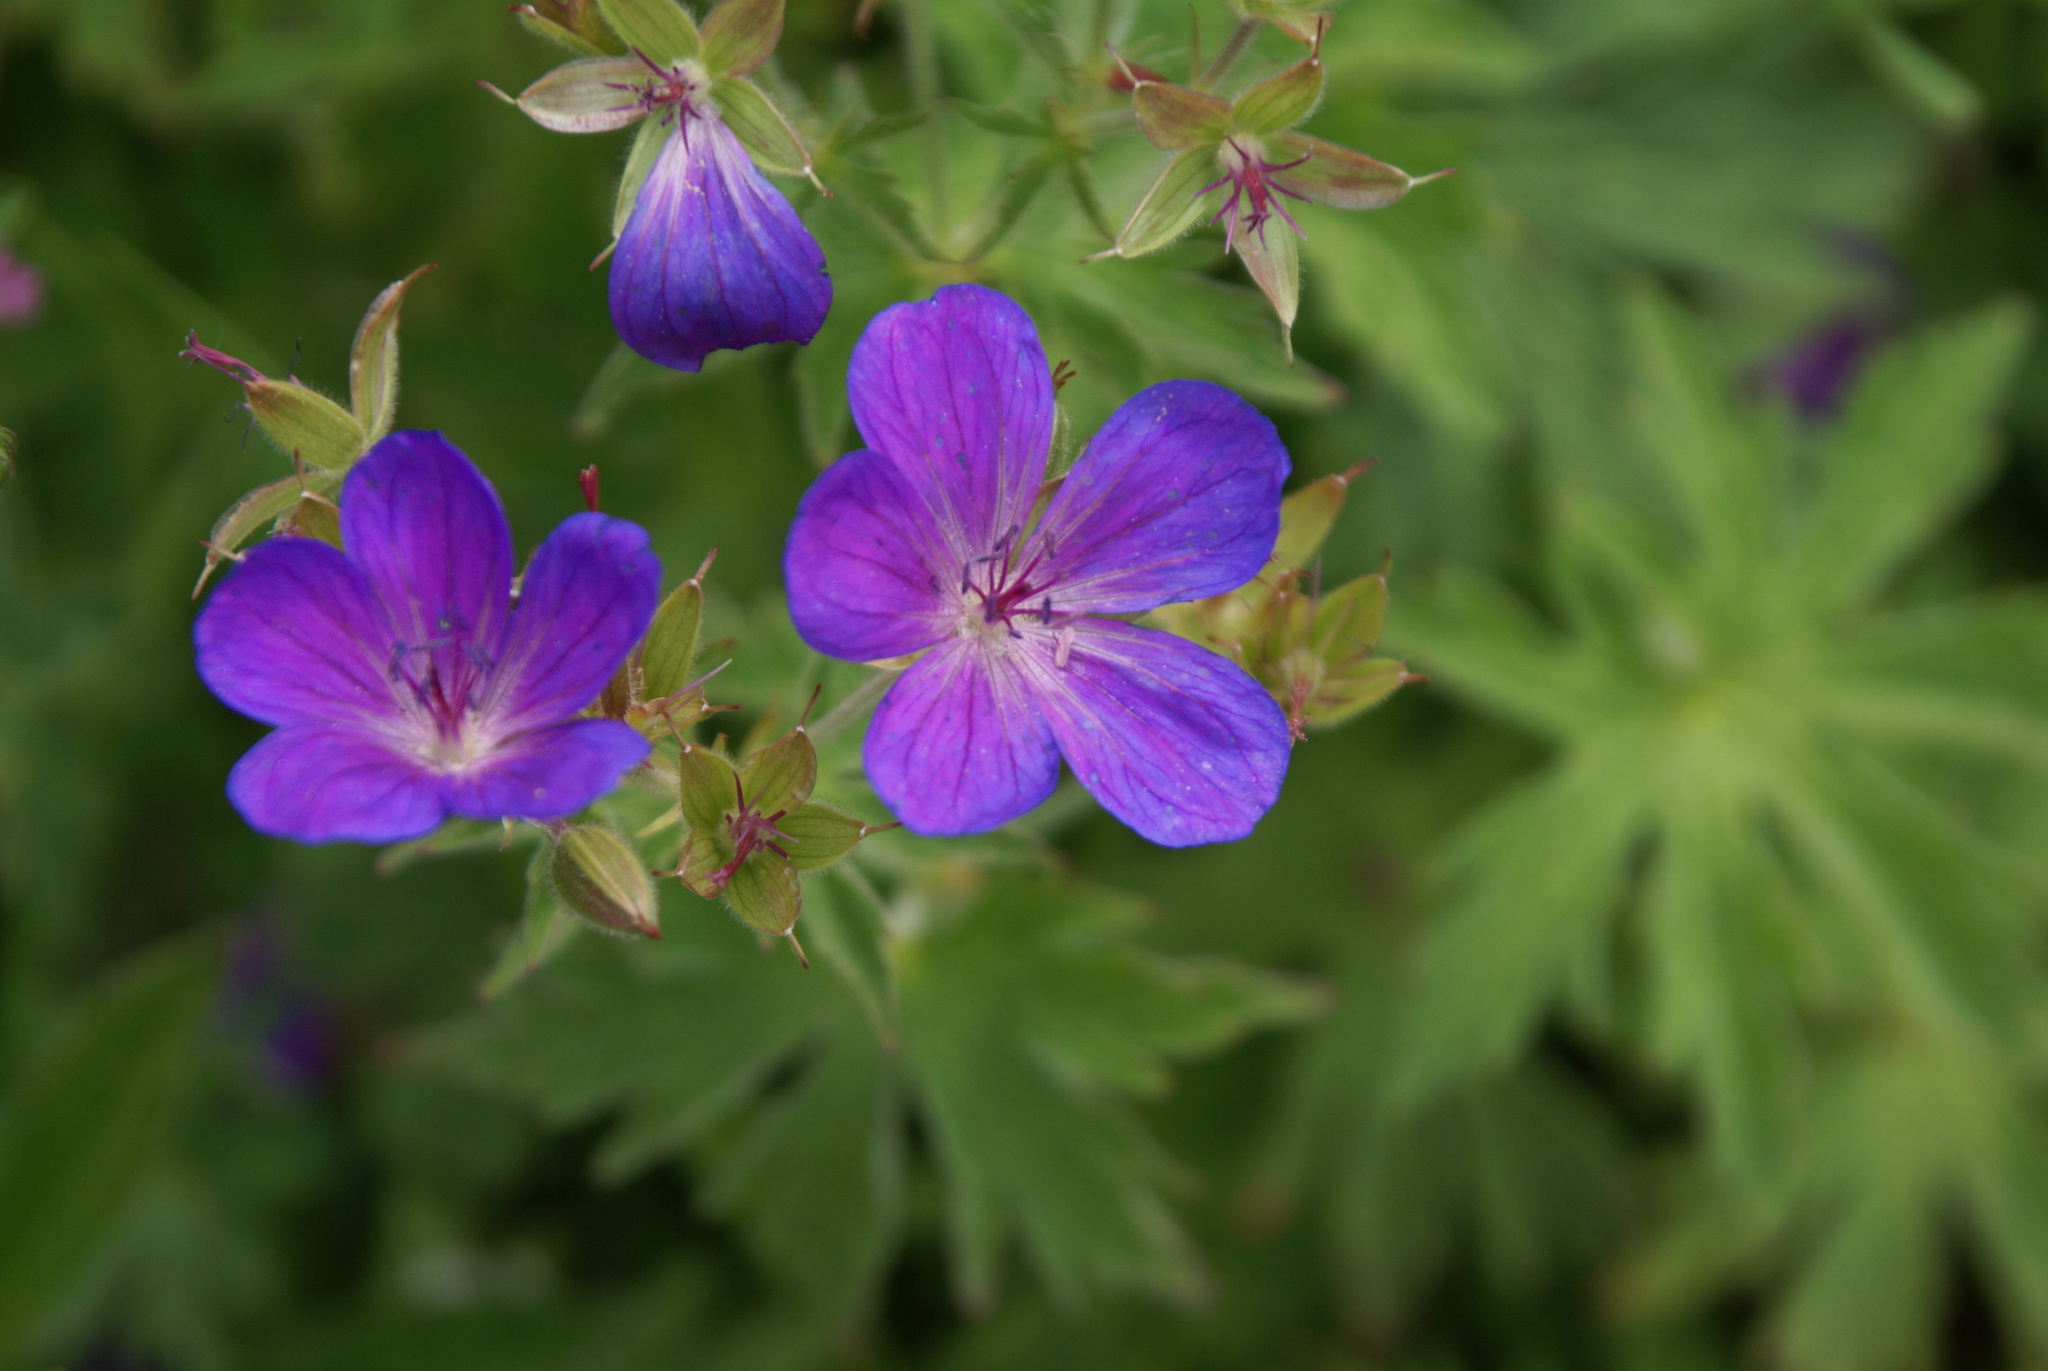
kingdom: Plantae
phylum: Tracheophyta
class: Magnoliopsida
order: Geraniales
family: Geraniaceae
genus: Geranium
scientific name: Geranium sylvaticum
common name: Wood crane's-bill
